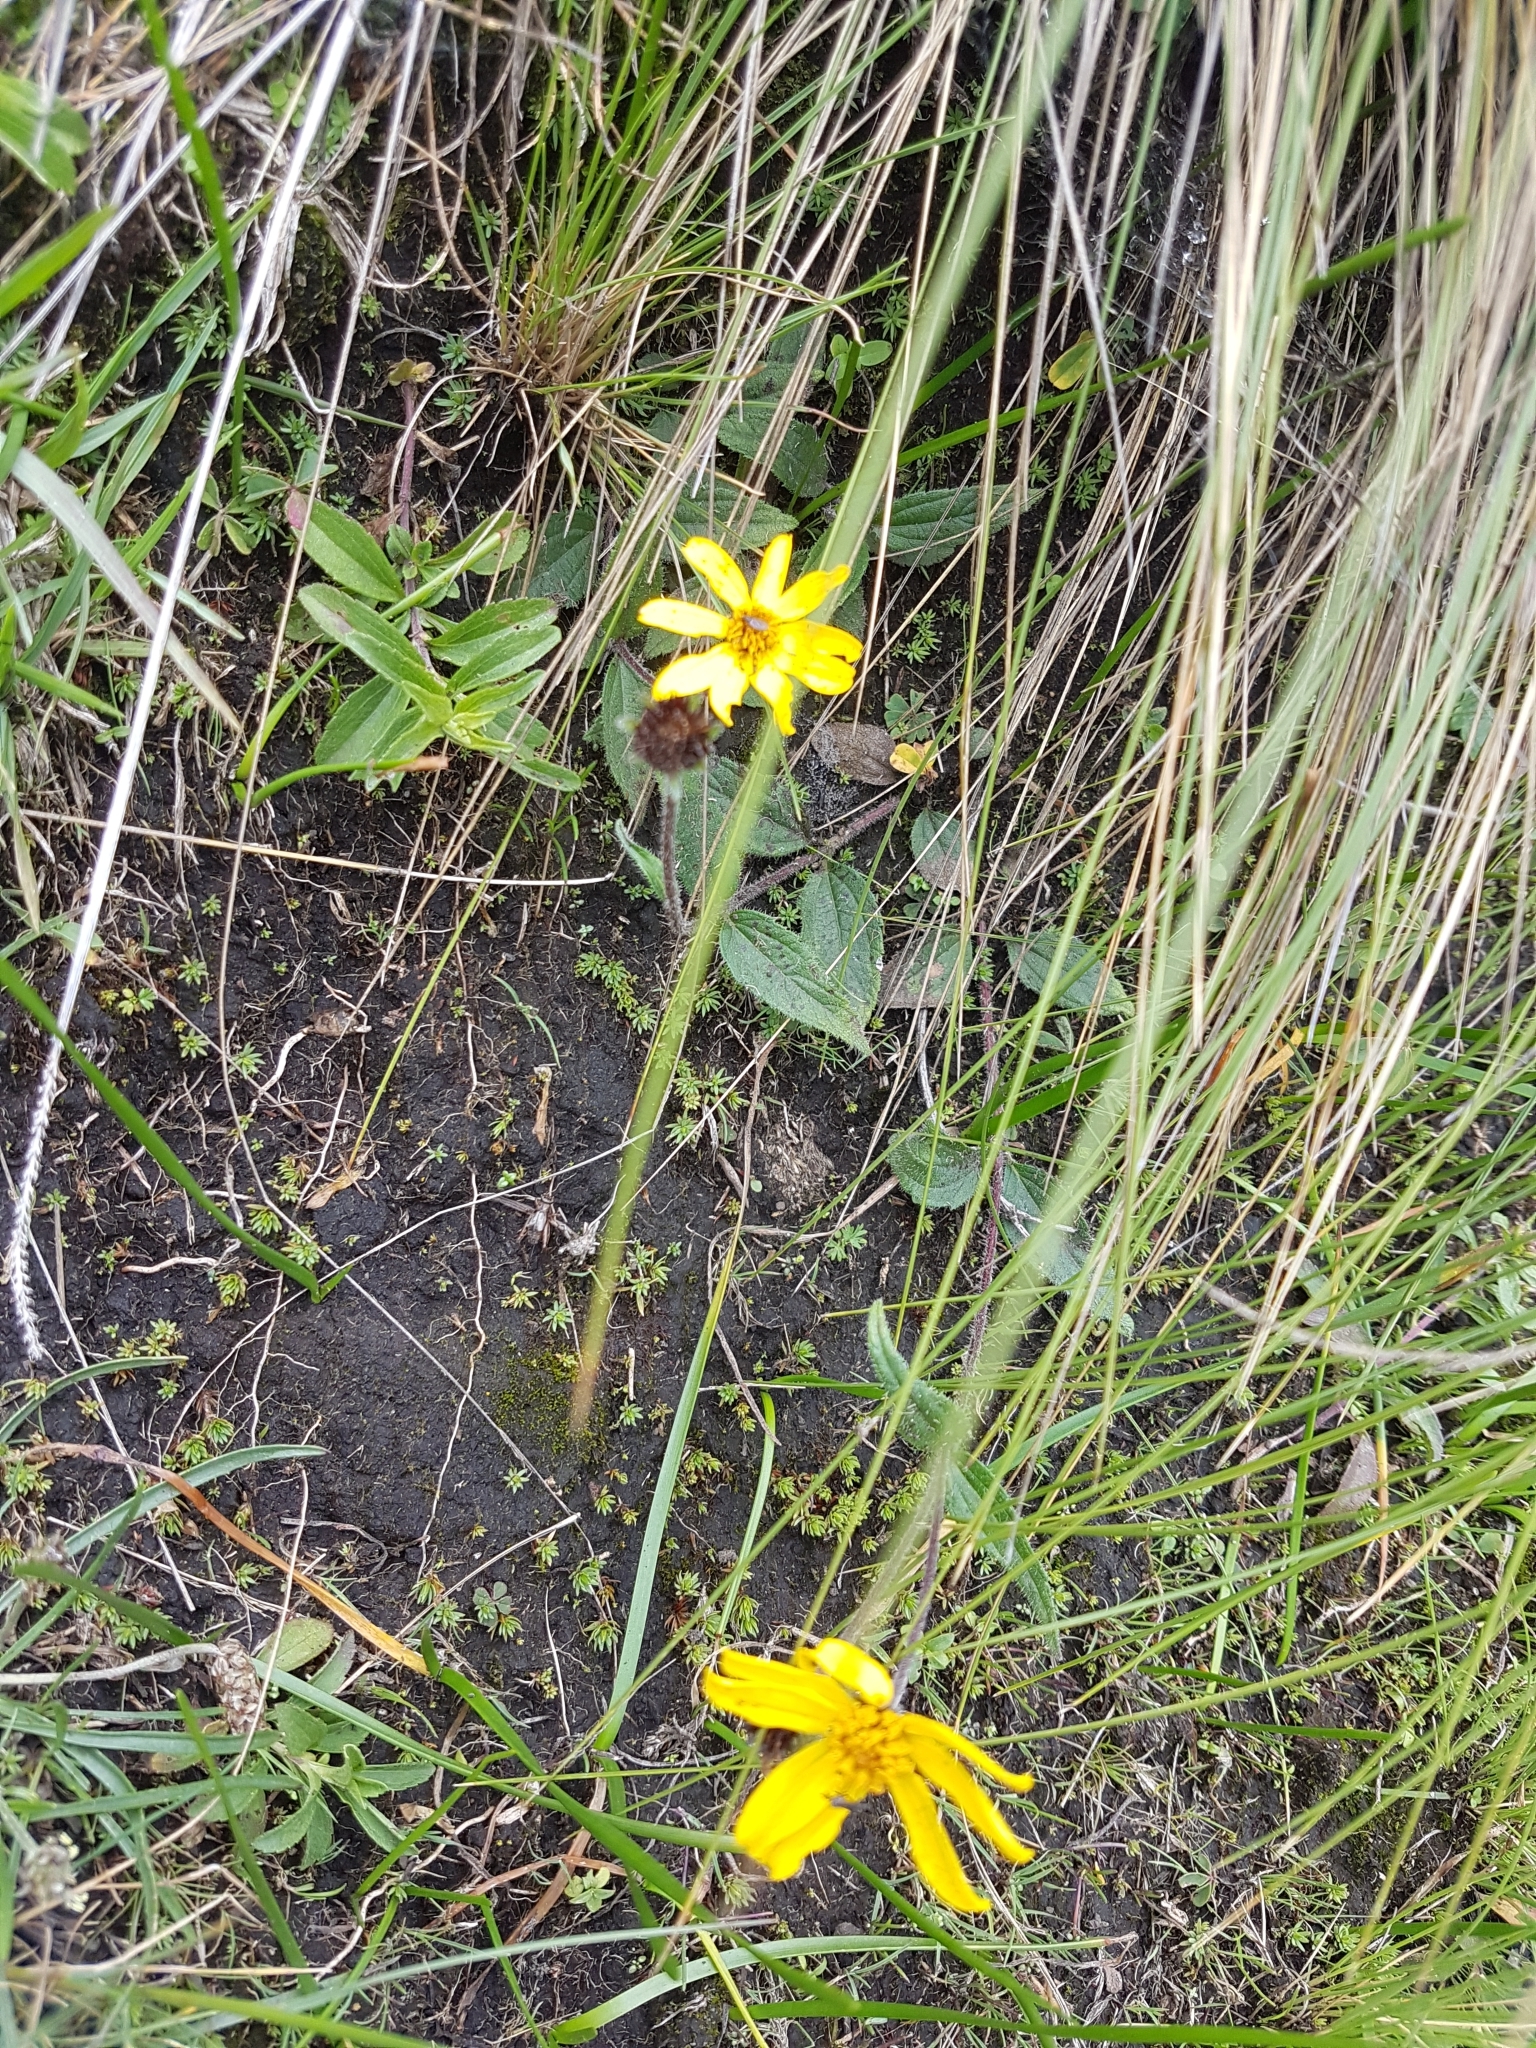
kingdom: Animalia
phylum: Arthropoda
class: Insecta
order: Lepidoptera
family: Nymphalidae
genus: Vanessa
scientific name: Vanessa virginiensis
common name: American lady
